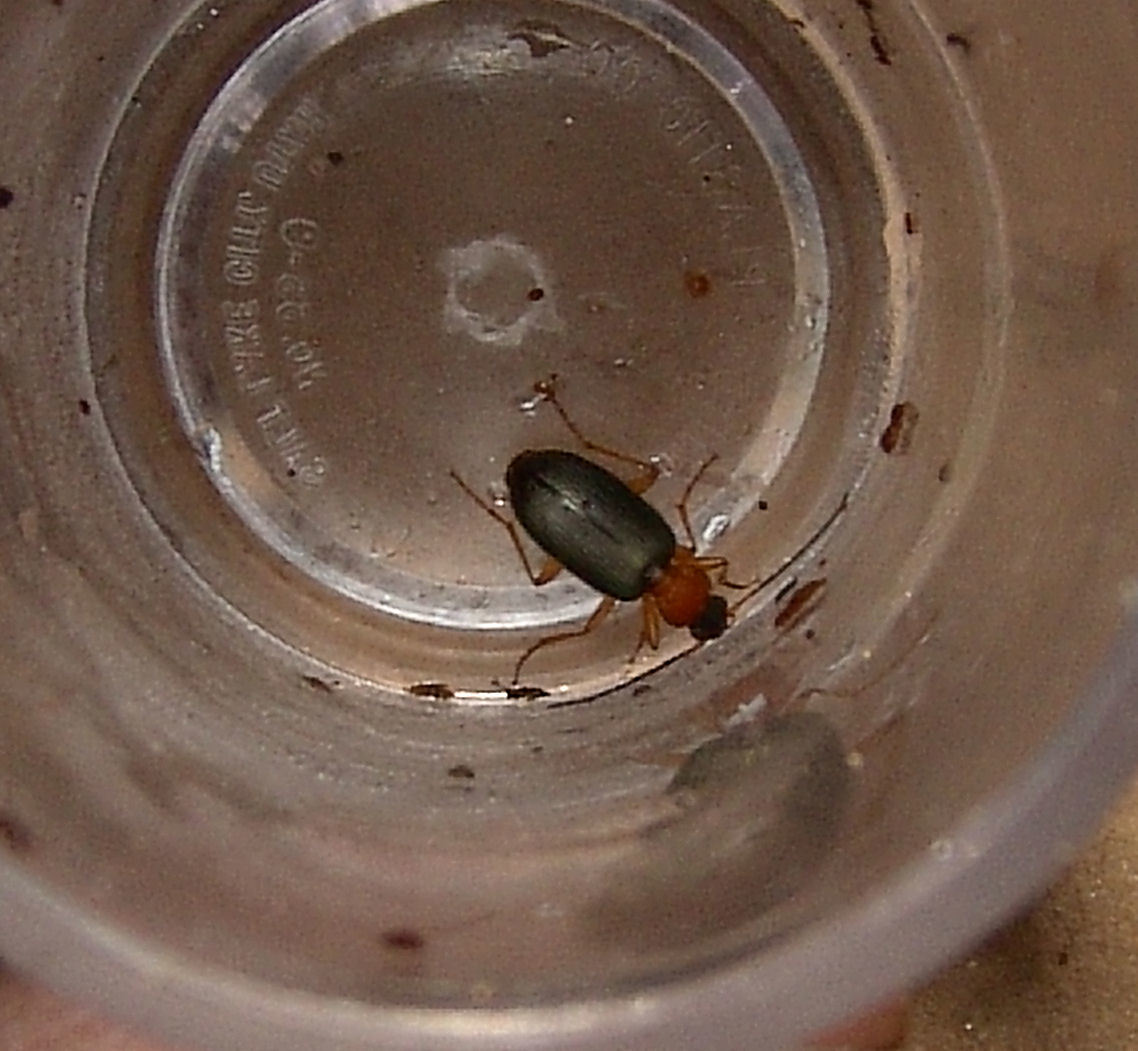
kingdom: Animalia
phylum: Arthropoda
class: Insecta
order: Coleoptera
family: Carabidae
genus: Agonum
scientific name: Agonum decorum
